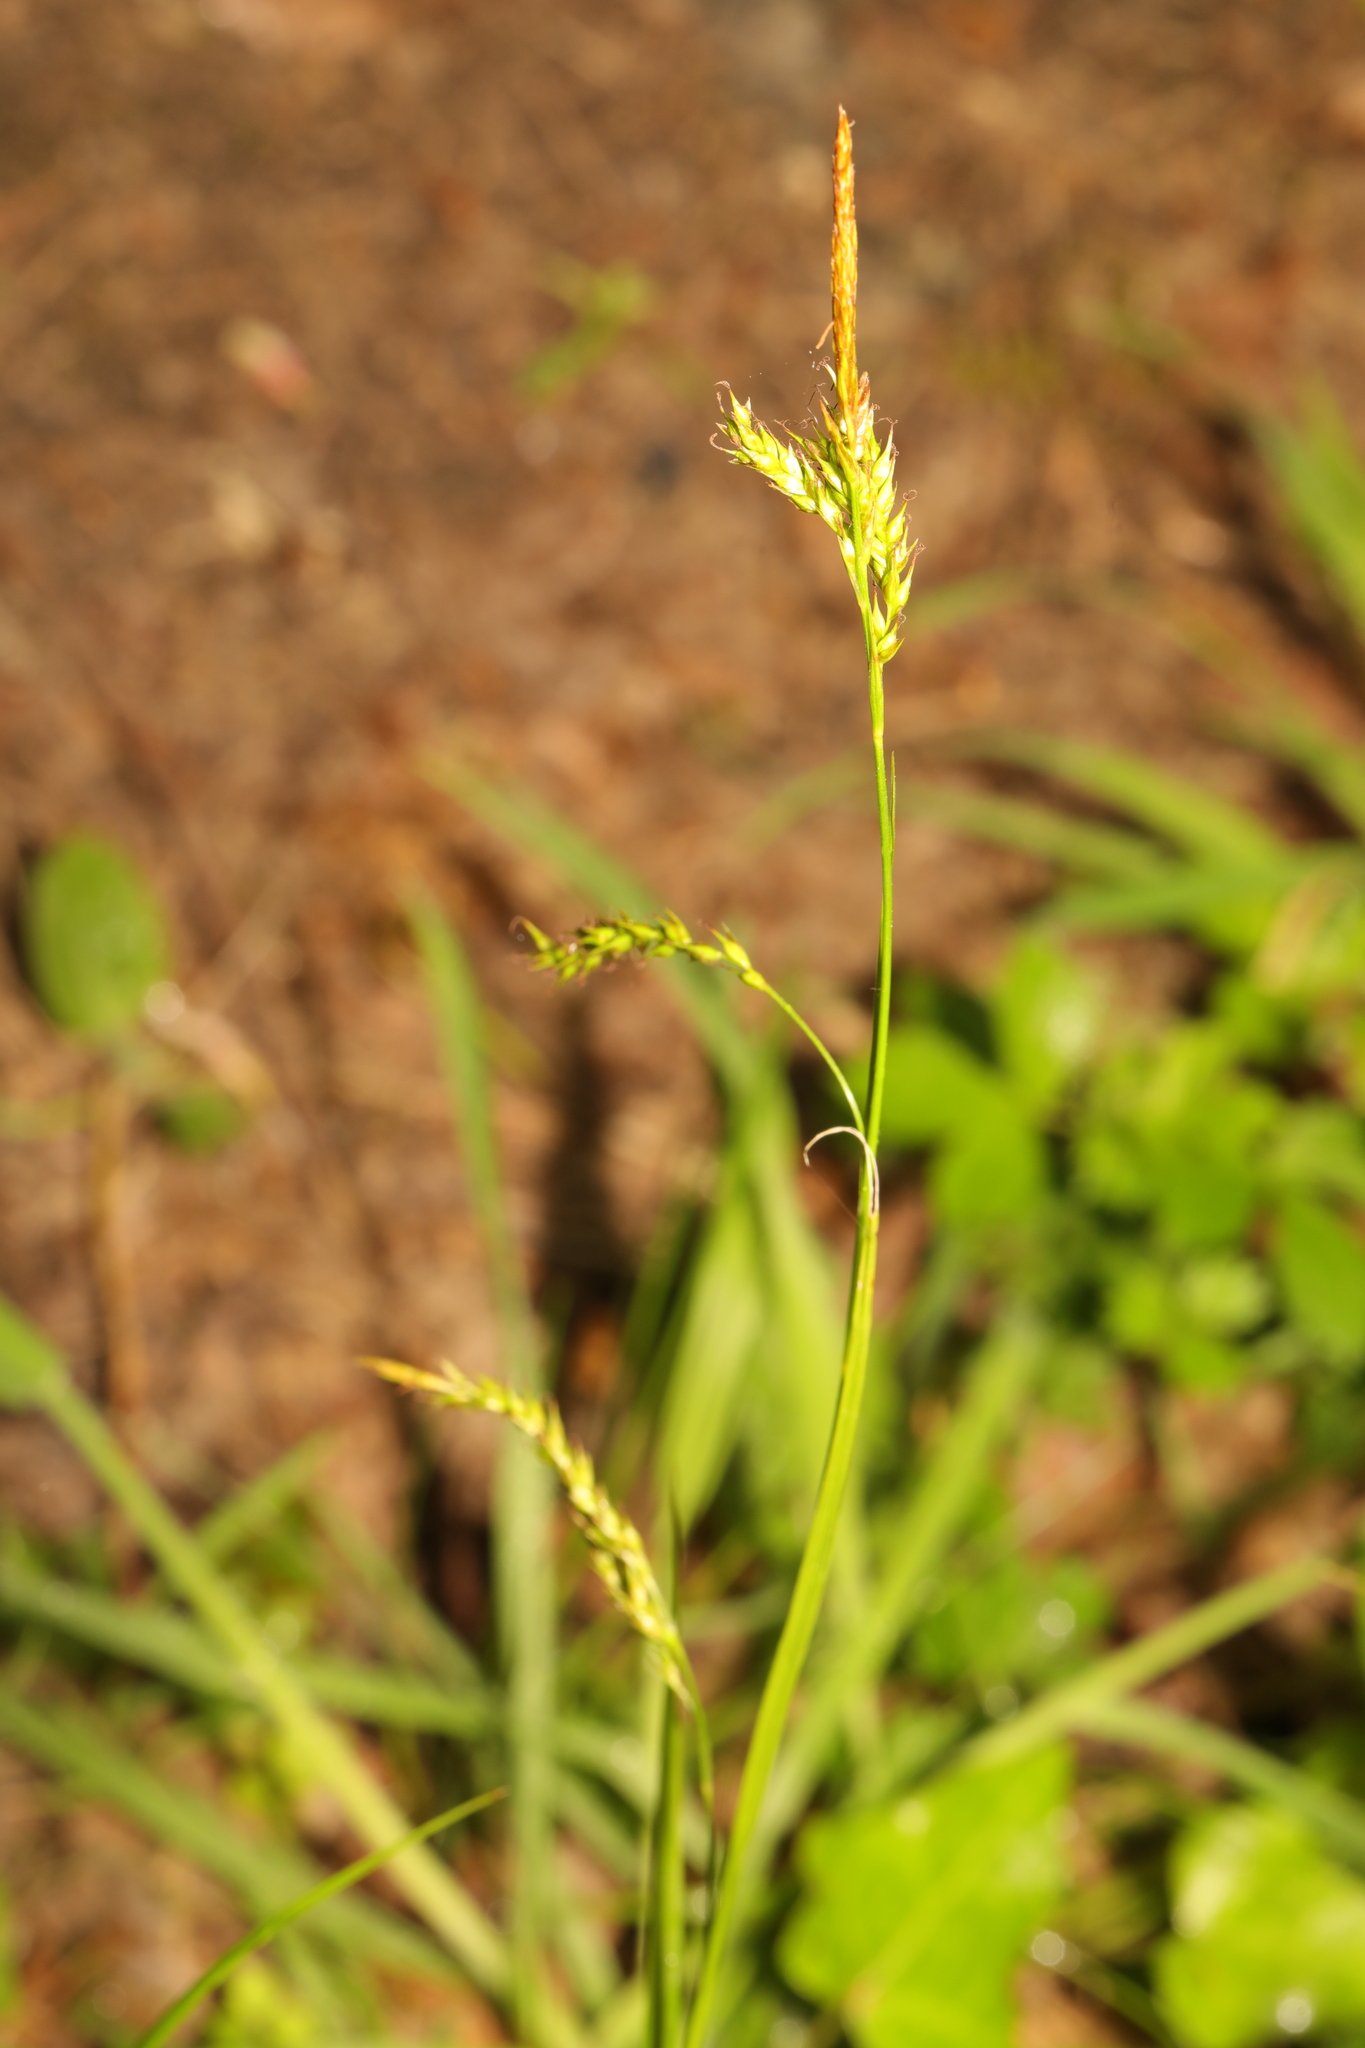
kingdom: Plantae
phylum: Tracheophyta
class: Liliopsida
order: Poales
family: Cyperaceae
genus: Carex
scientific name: Carex sylvatica
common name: Wood-sedge
